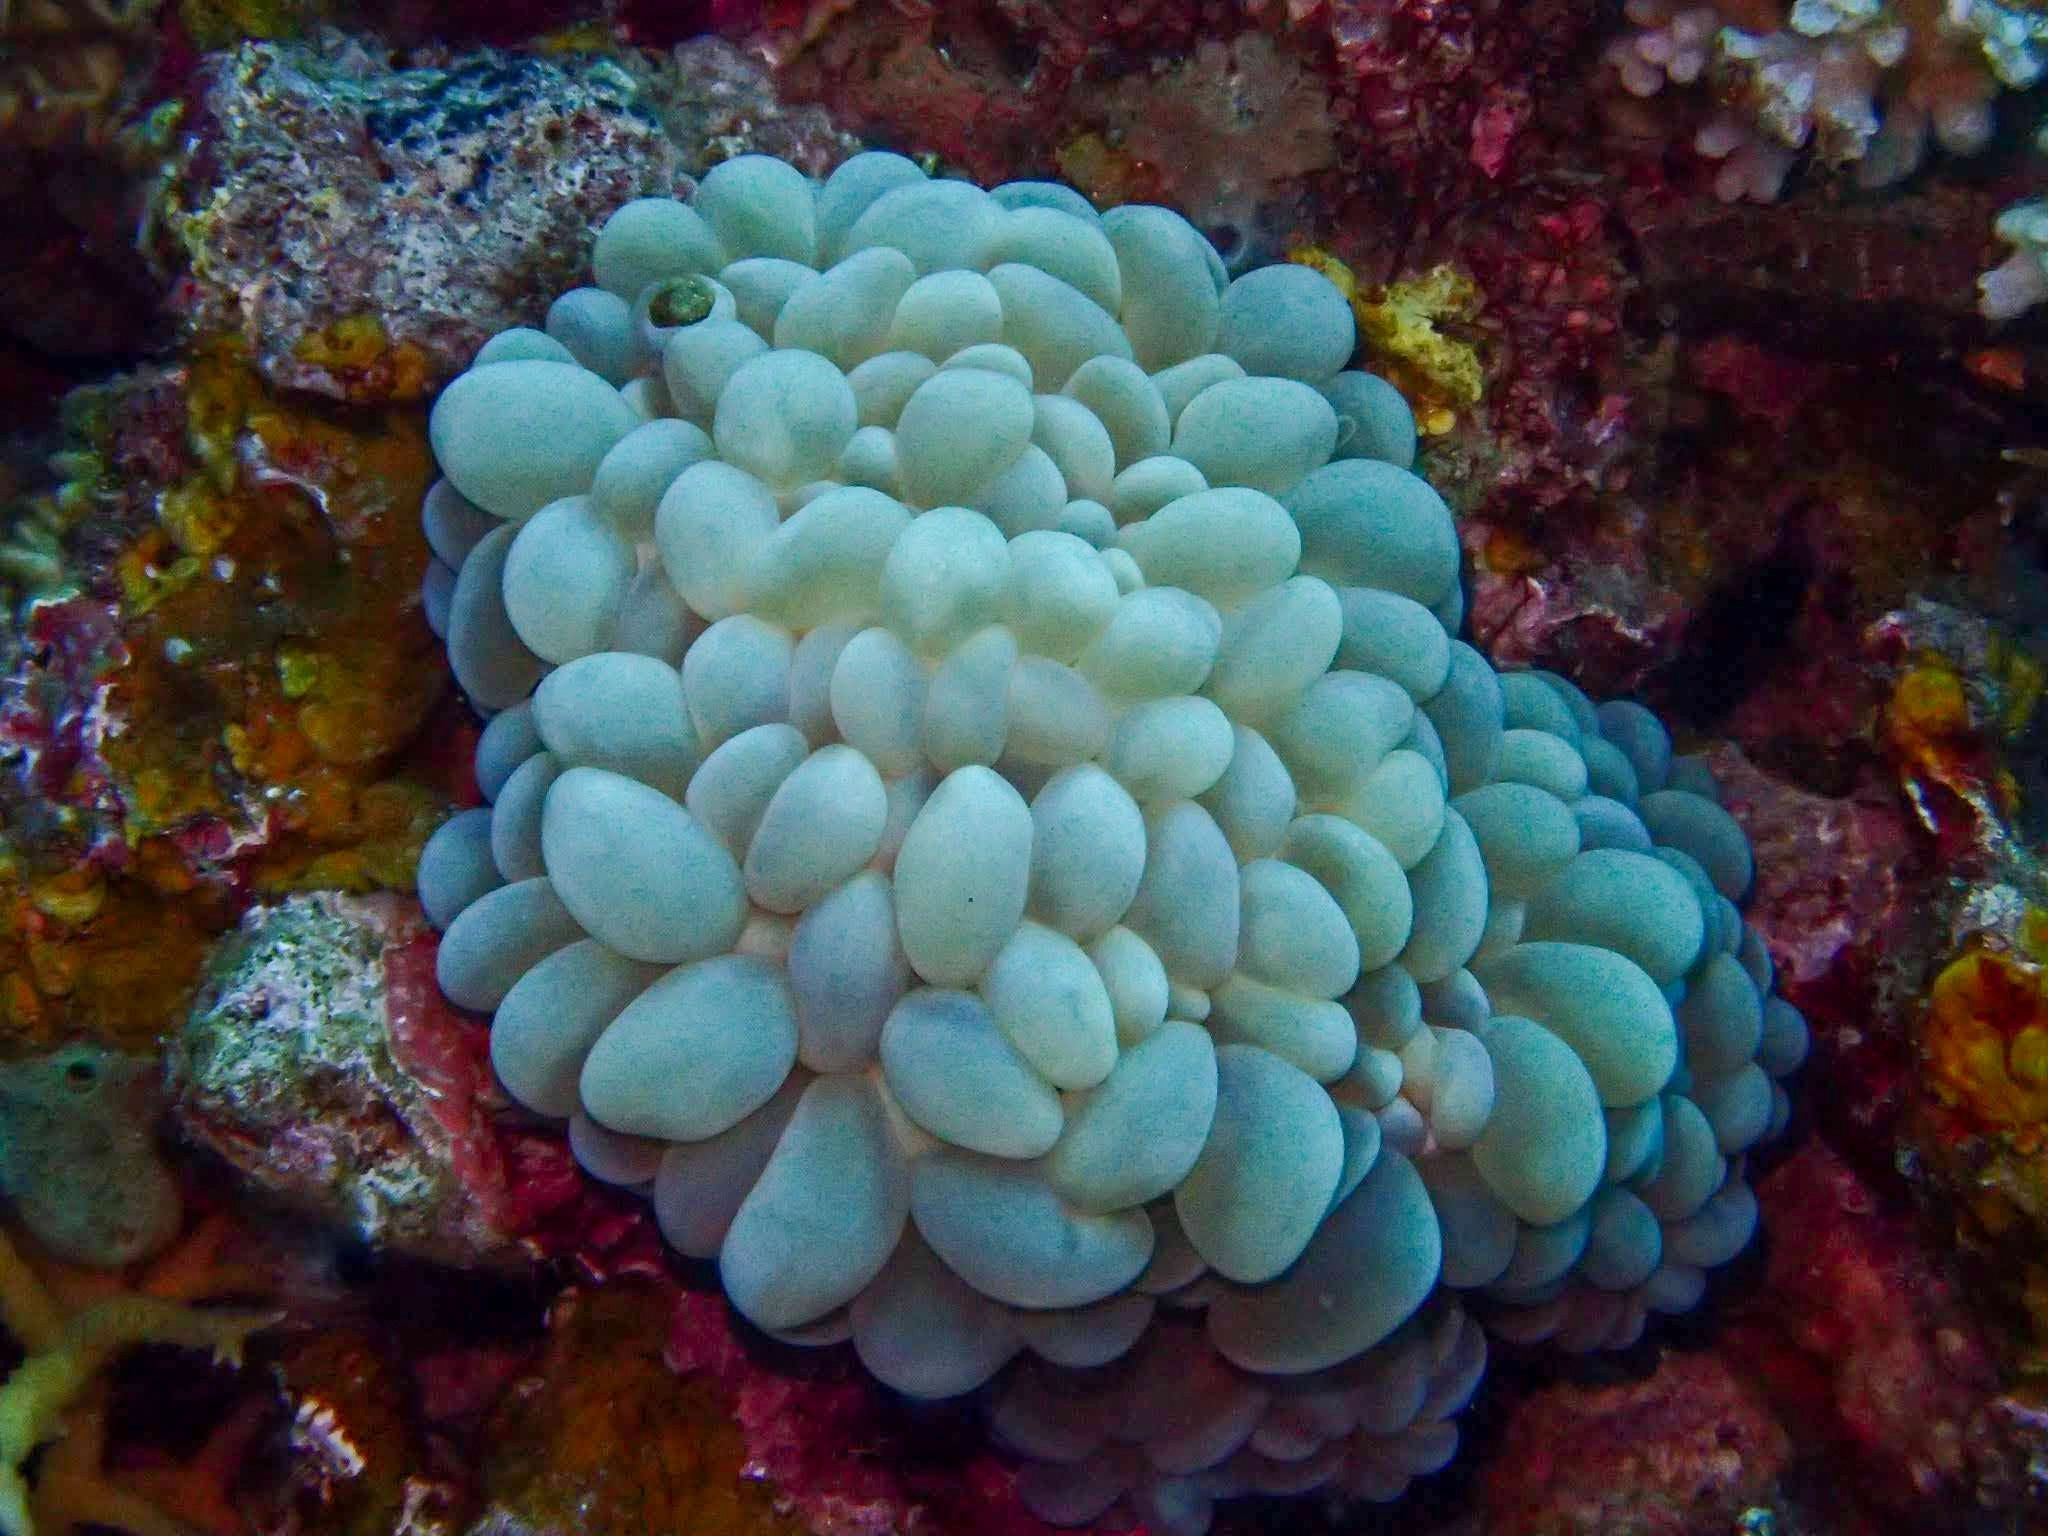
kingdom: Animalia
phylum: Cnidaria
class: Anthozoa
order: Scleractinia
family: Plerogyridae
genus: Plerogyra
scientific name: Plerogyra sinuosa
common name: Bubble coral
